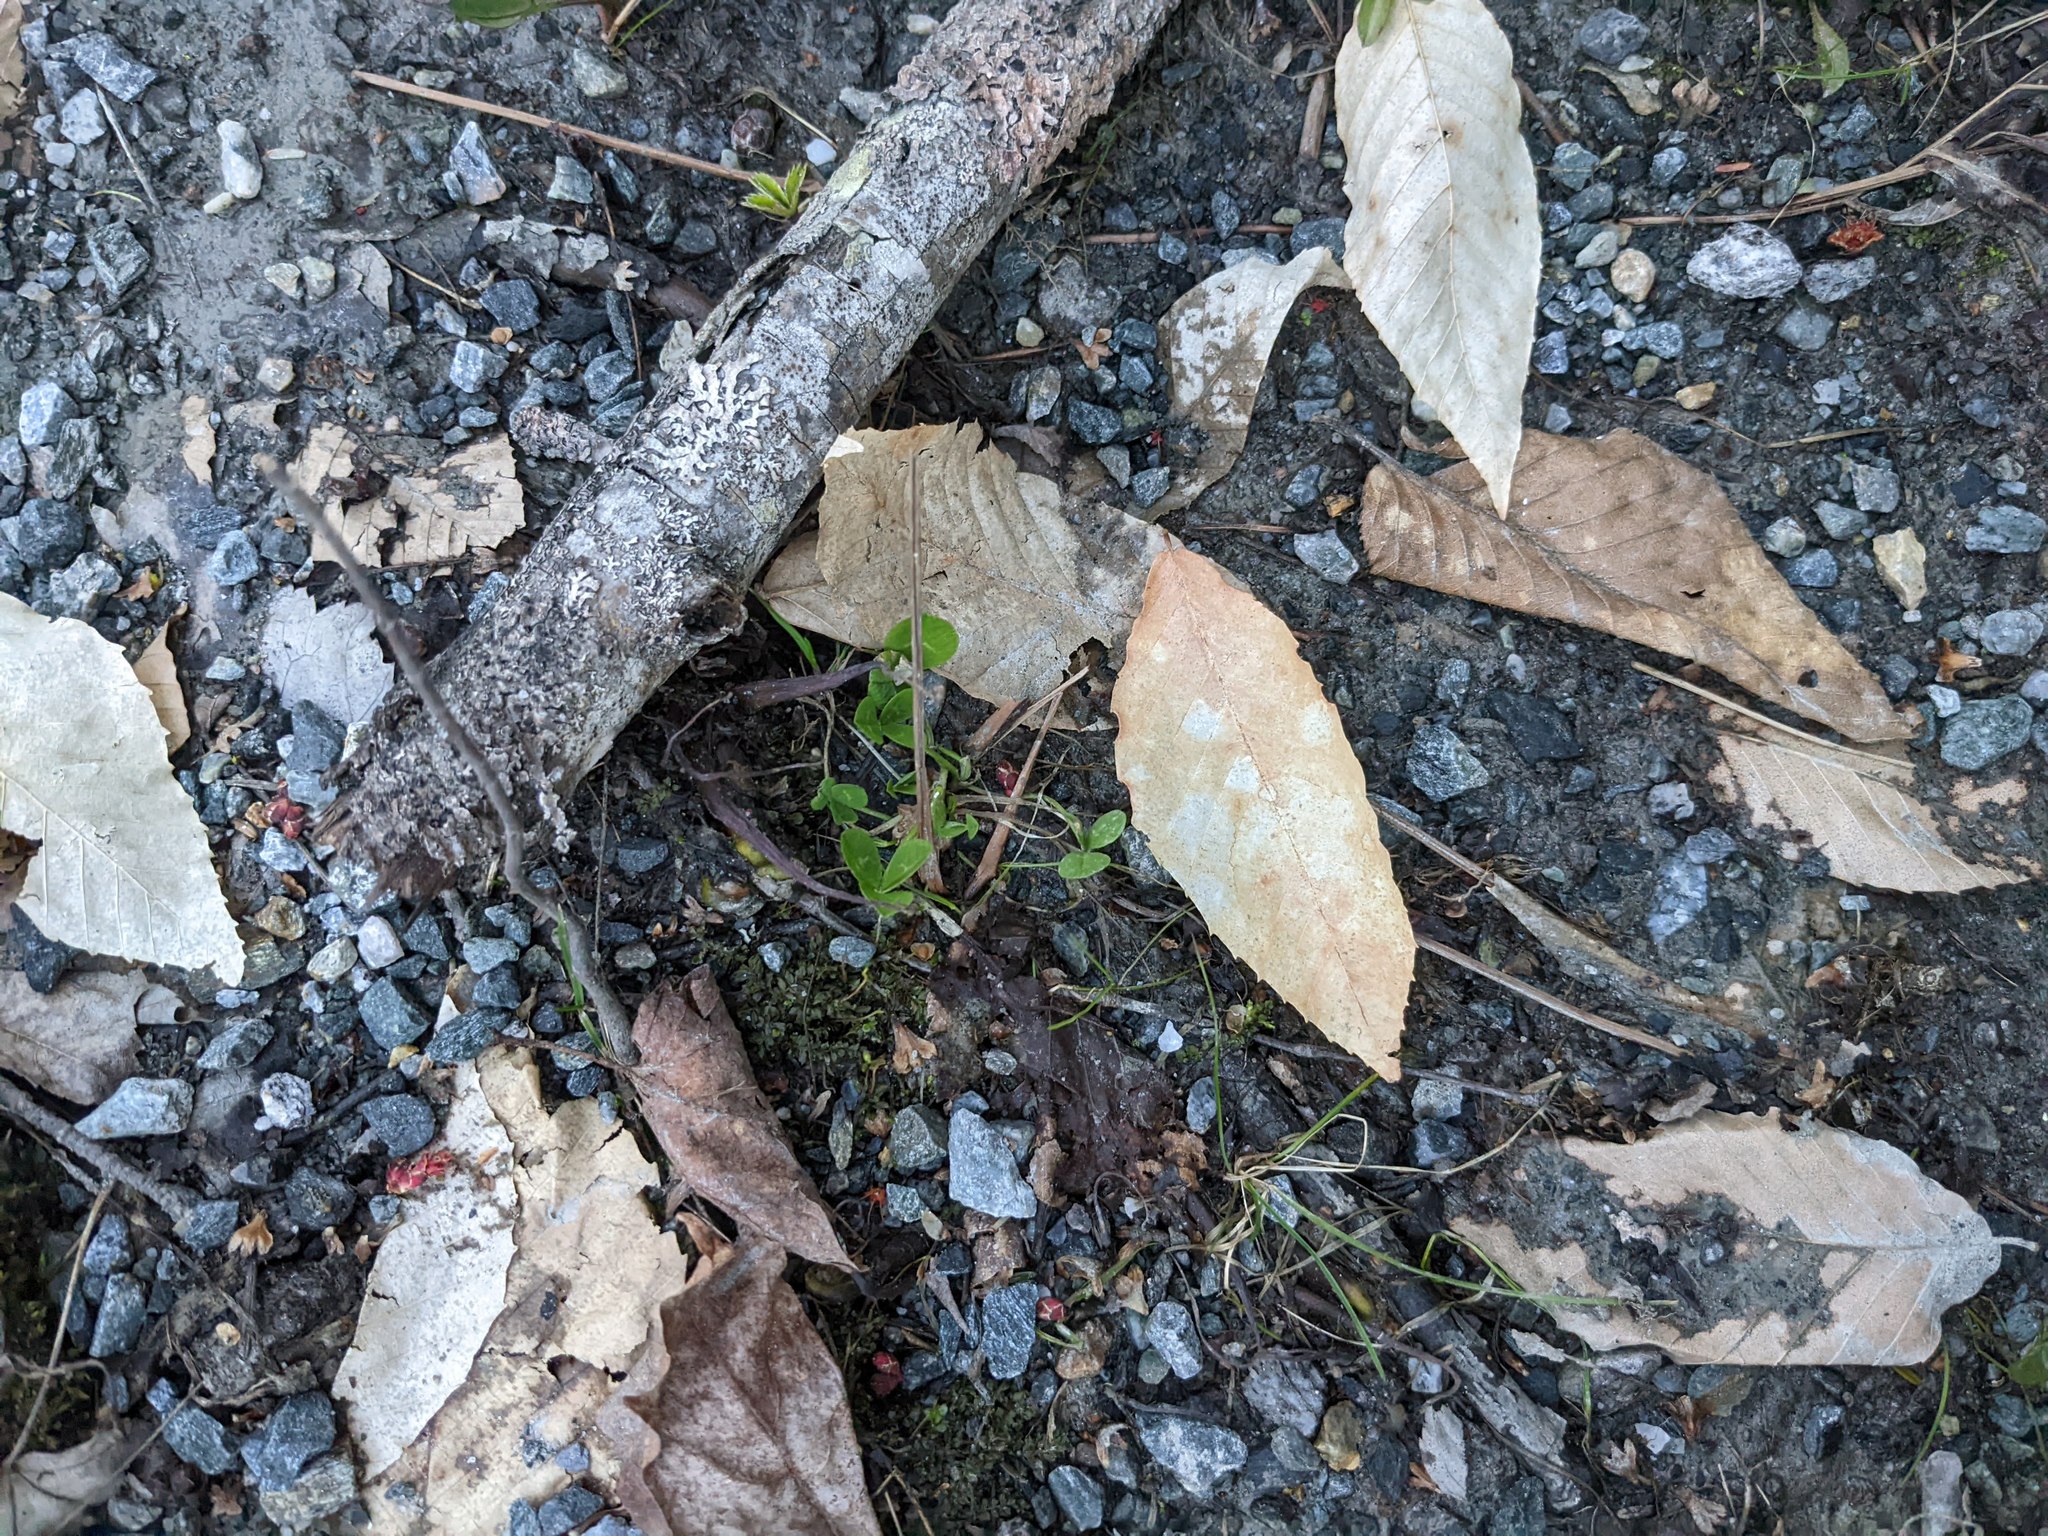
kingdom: Plantae
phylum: Tracheophyta
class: Magnoliopsida
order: Fabales
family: Fabaceae
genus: Trifolium
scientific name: Trifolium repens
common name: White clover
